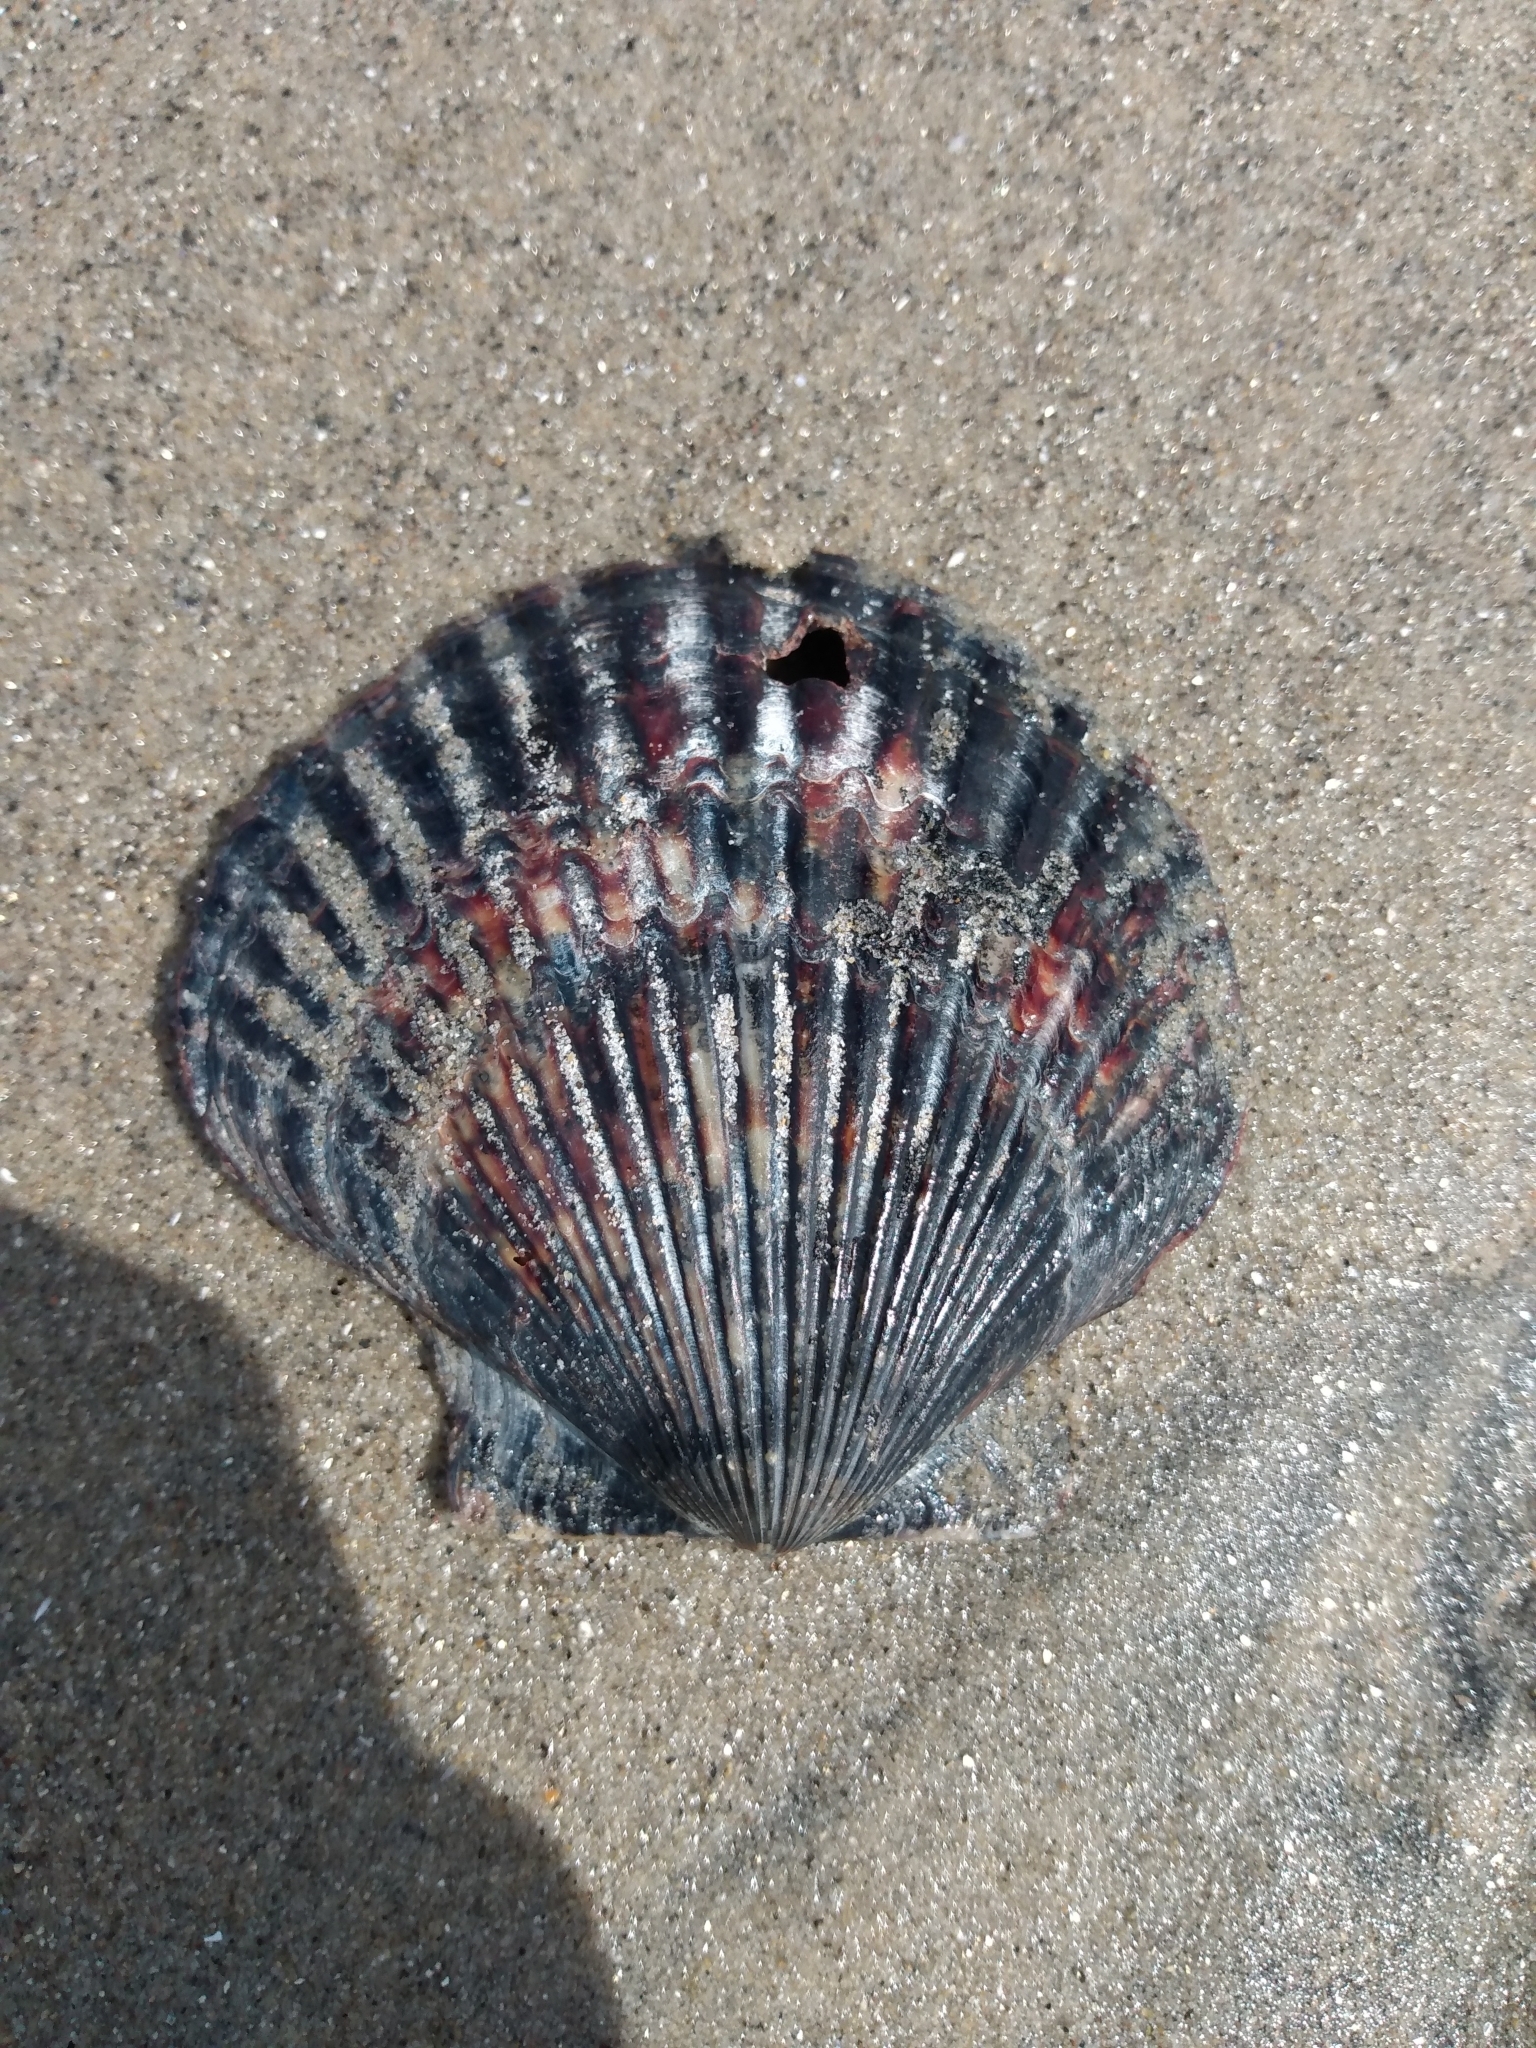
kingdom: Animalia
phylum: Mollusca
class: Bivalvia
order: Pectinida
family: Pectinidae
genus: Argopecten
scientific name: Argopecten ventricosus
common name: Catarina scallop
